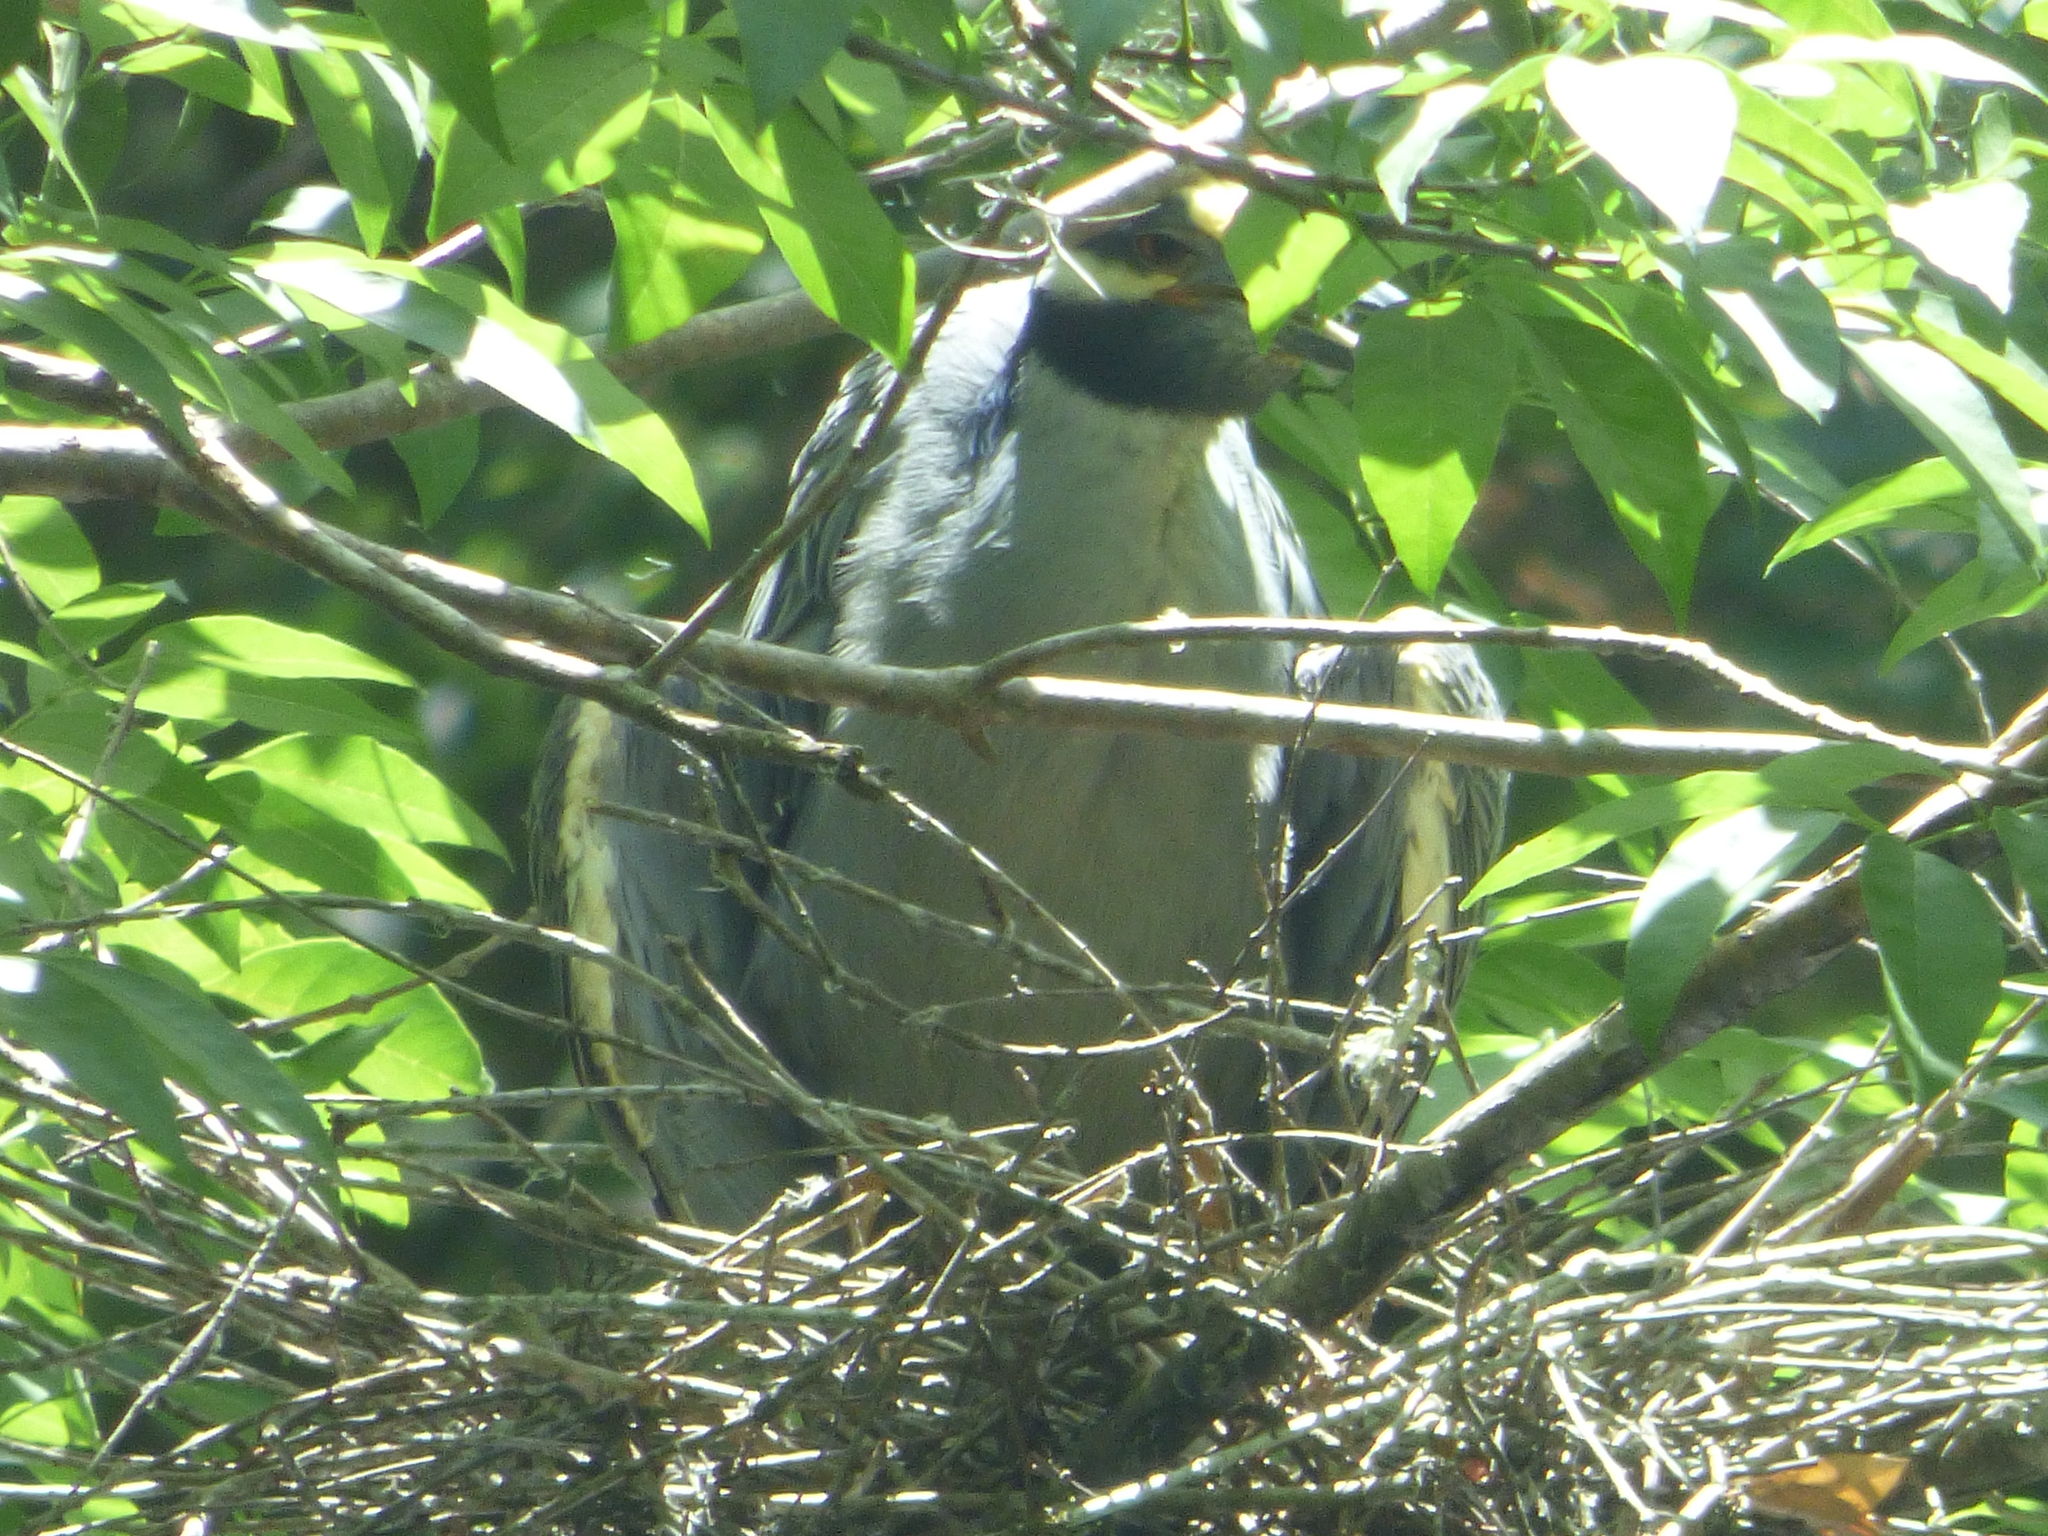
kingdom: Animalia
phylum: Chordata
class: Aves
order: Pelecaniformes
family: Ardeidae
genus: Nyctanassa
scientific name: Nyctanassa violacea
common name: Yellow-crowned night heron
